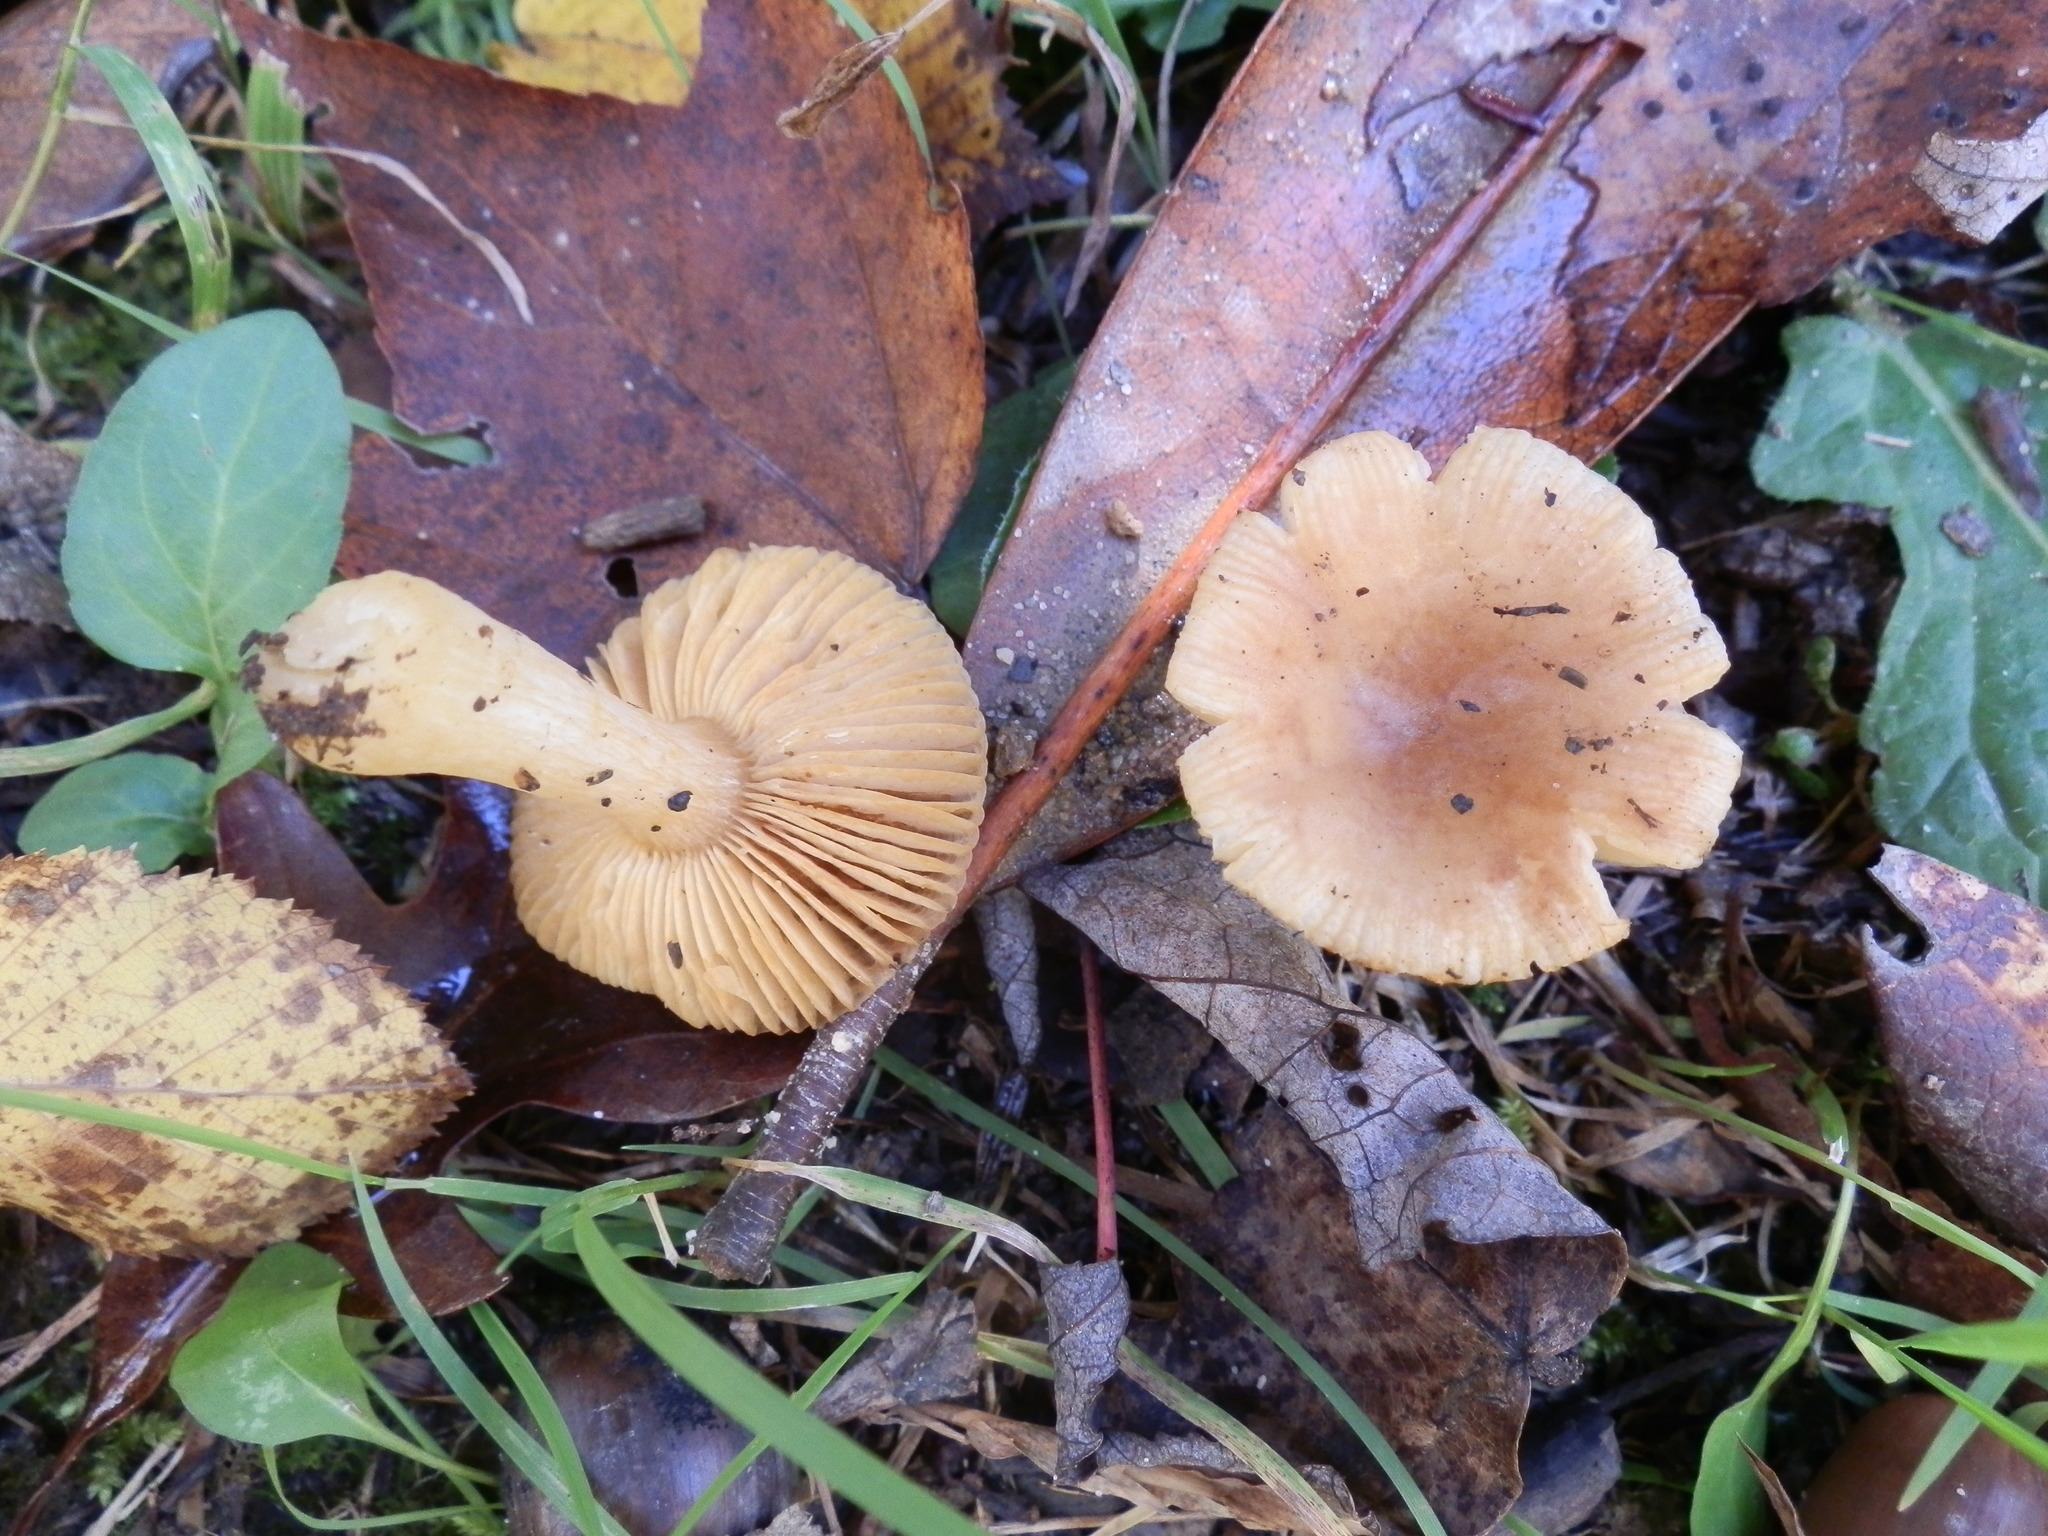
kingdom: Fungi
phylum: Basidiomycota
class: Agaricomycetes
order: Russulales
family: Russulaceae
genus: Russula
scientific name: Russula puellaris
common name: Yellowing brittlegill
